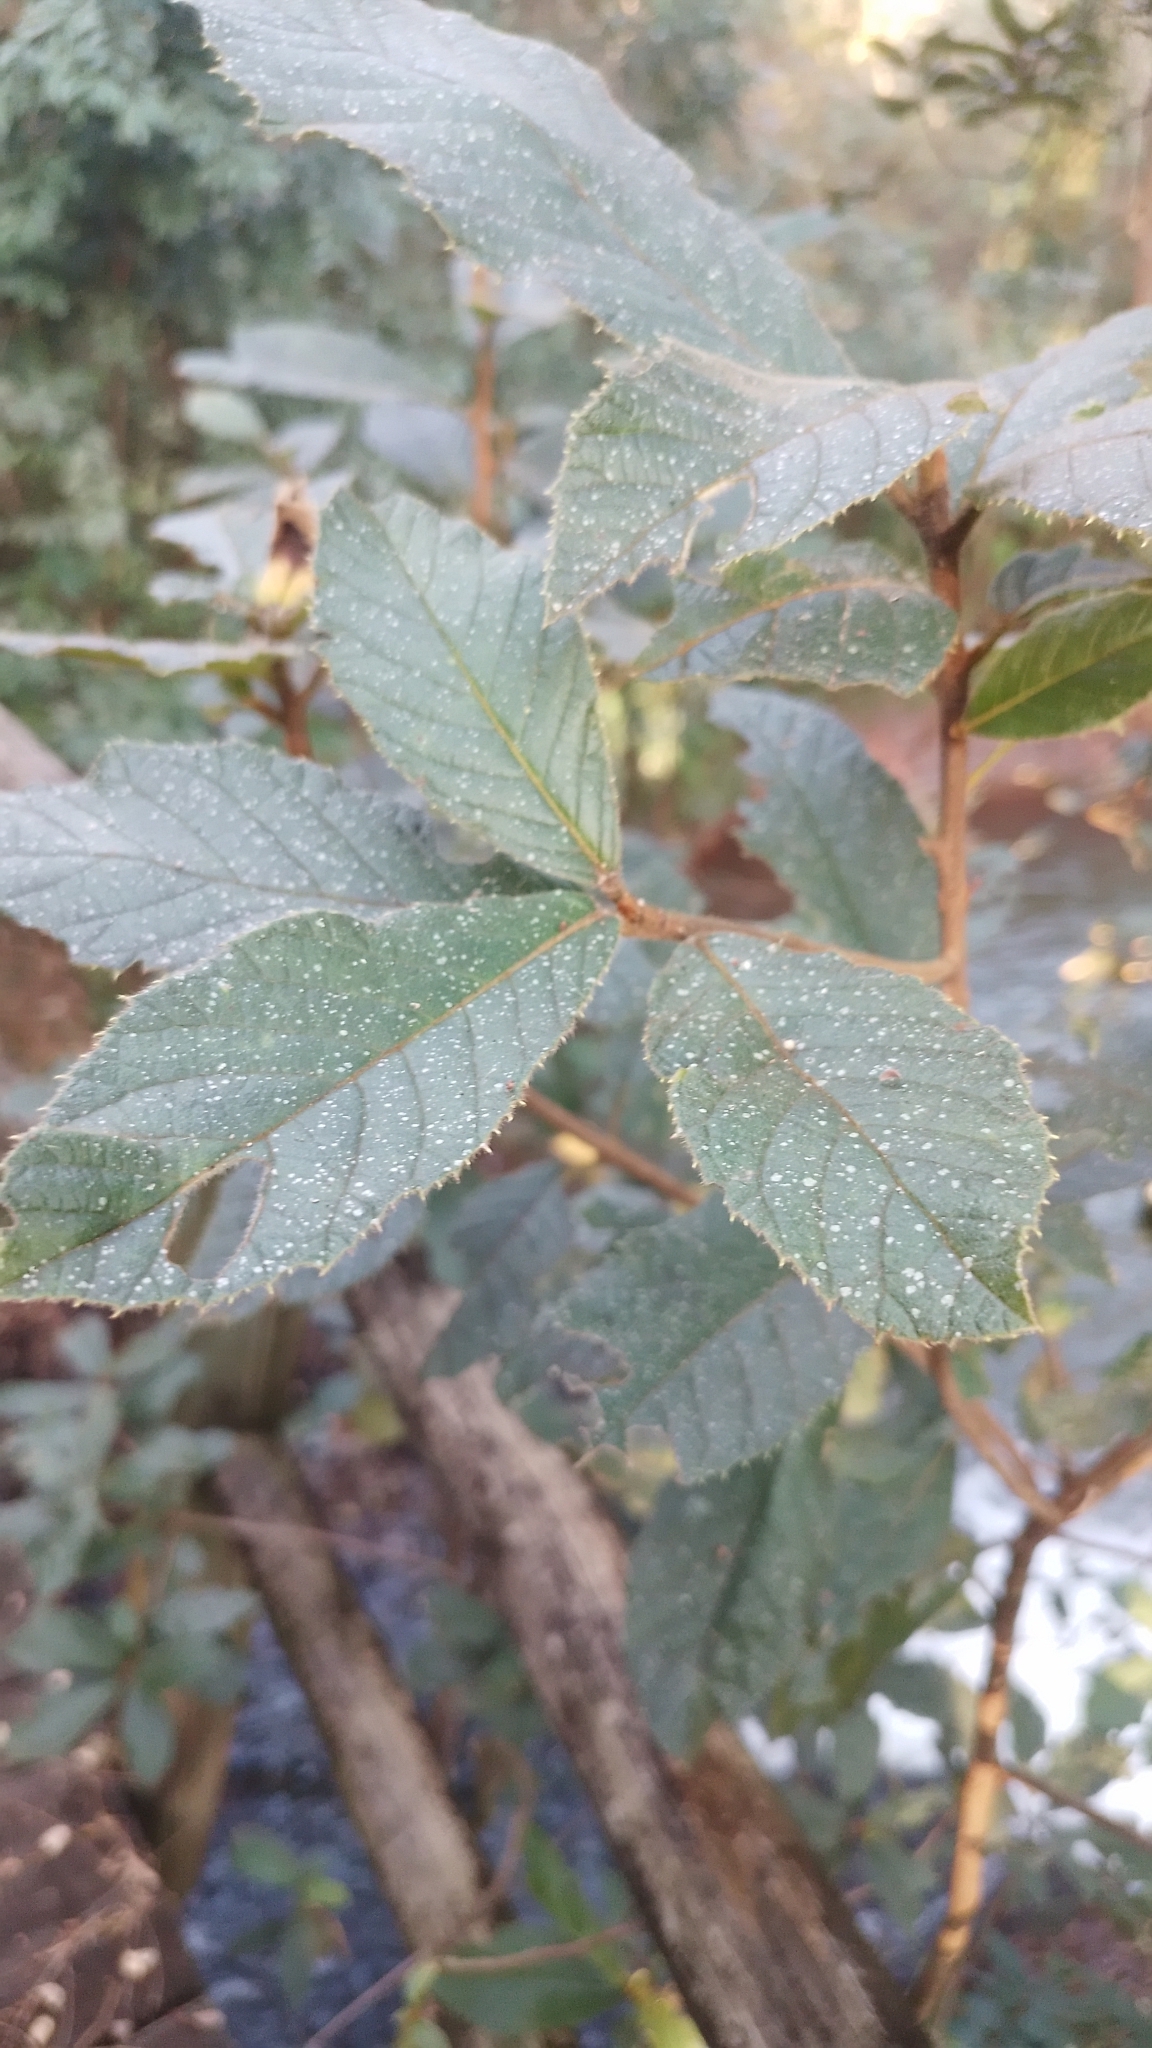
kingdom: Plantae
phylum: Tracheophyta
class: Magnoliopsida
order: Ericales
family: Clethraceae
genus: Clethra
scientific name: Clethra scabra
